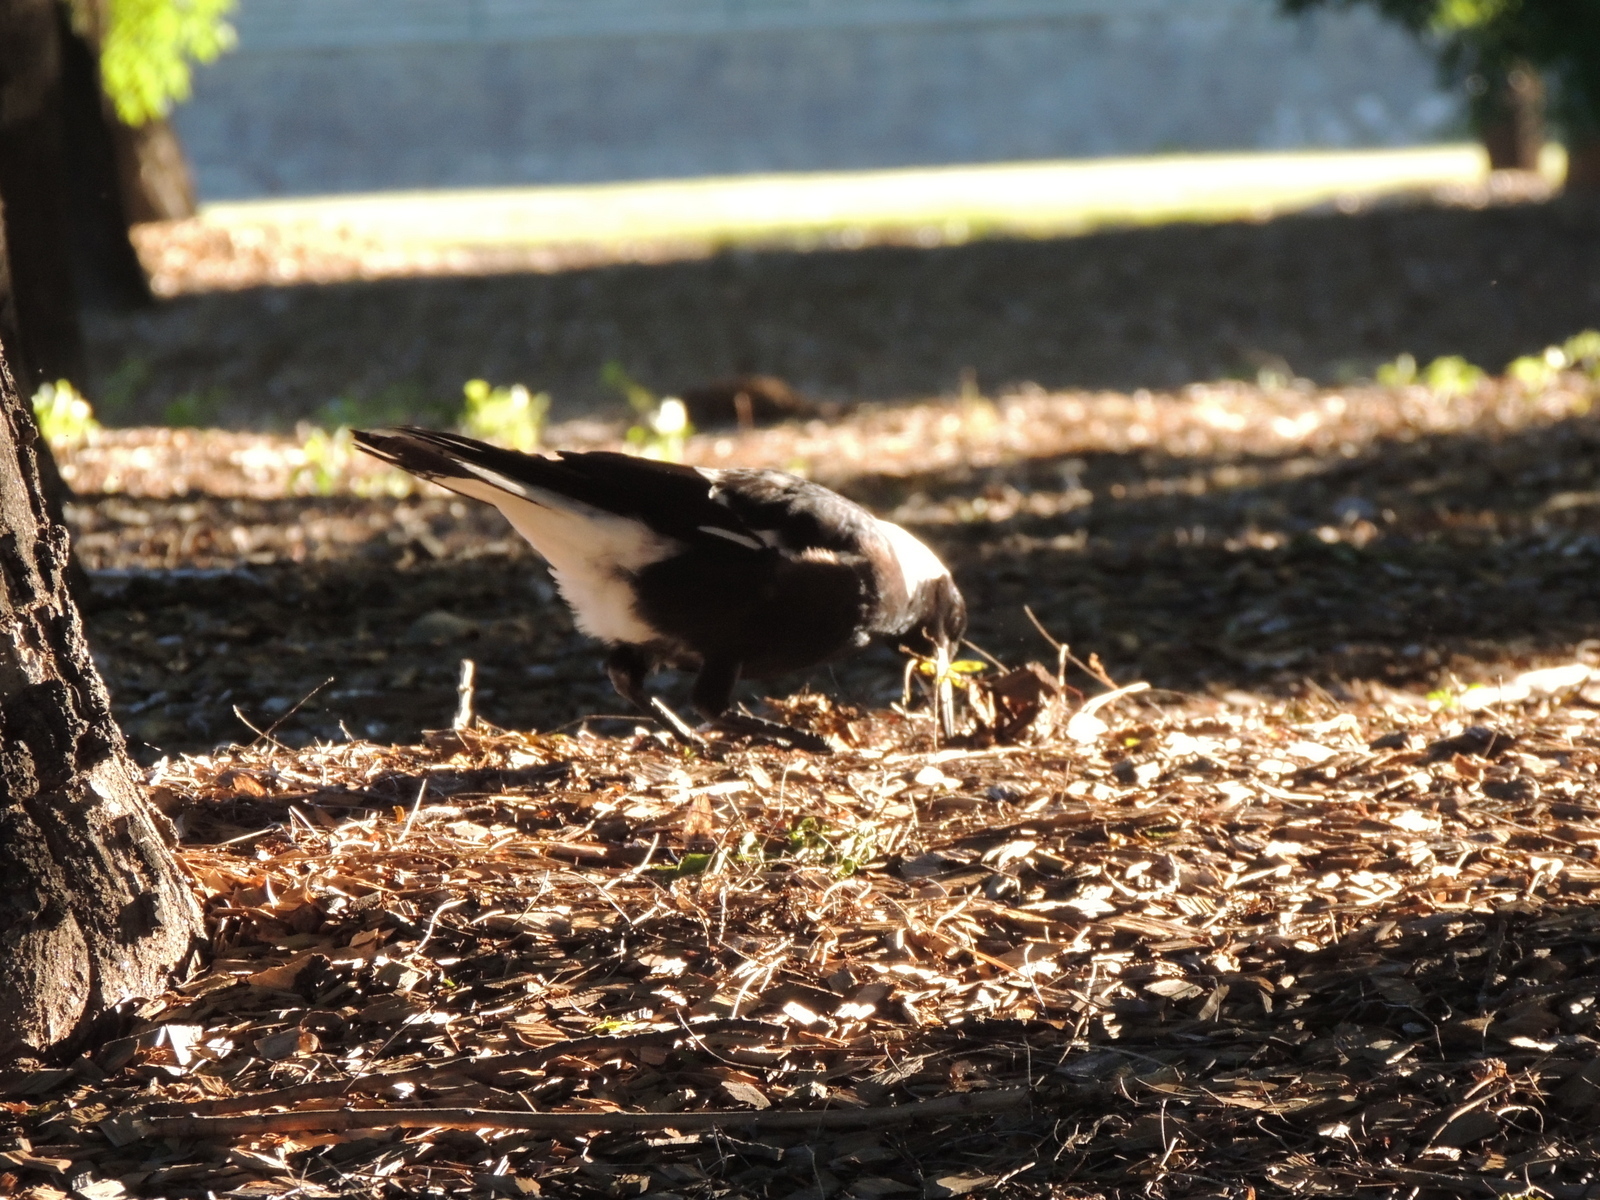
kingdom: Animalia
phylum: Chordata
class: Aves
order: Passeriformes
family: Cracticidae
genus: Gymnorhina
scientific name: Gymnorhina tibicen
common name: Australian magpie
